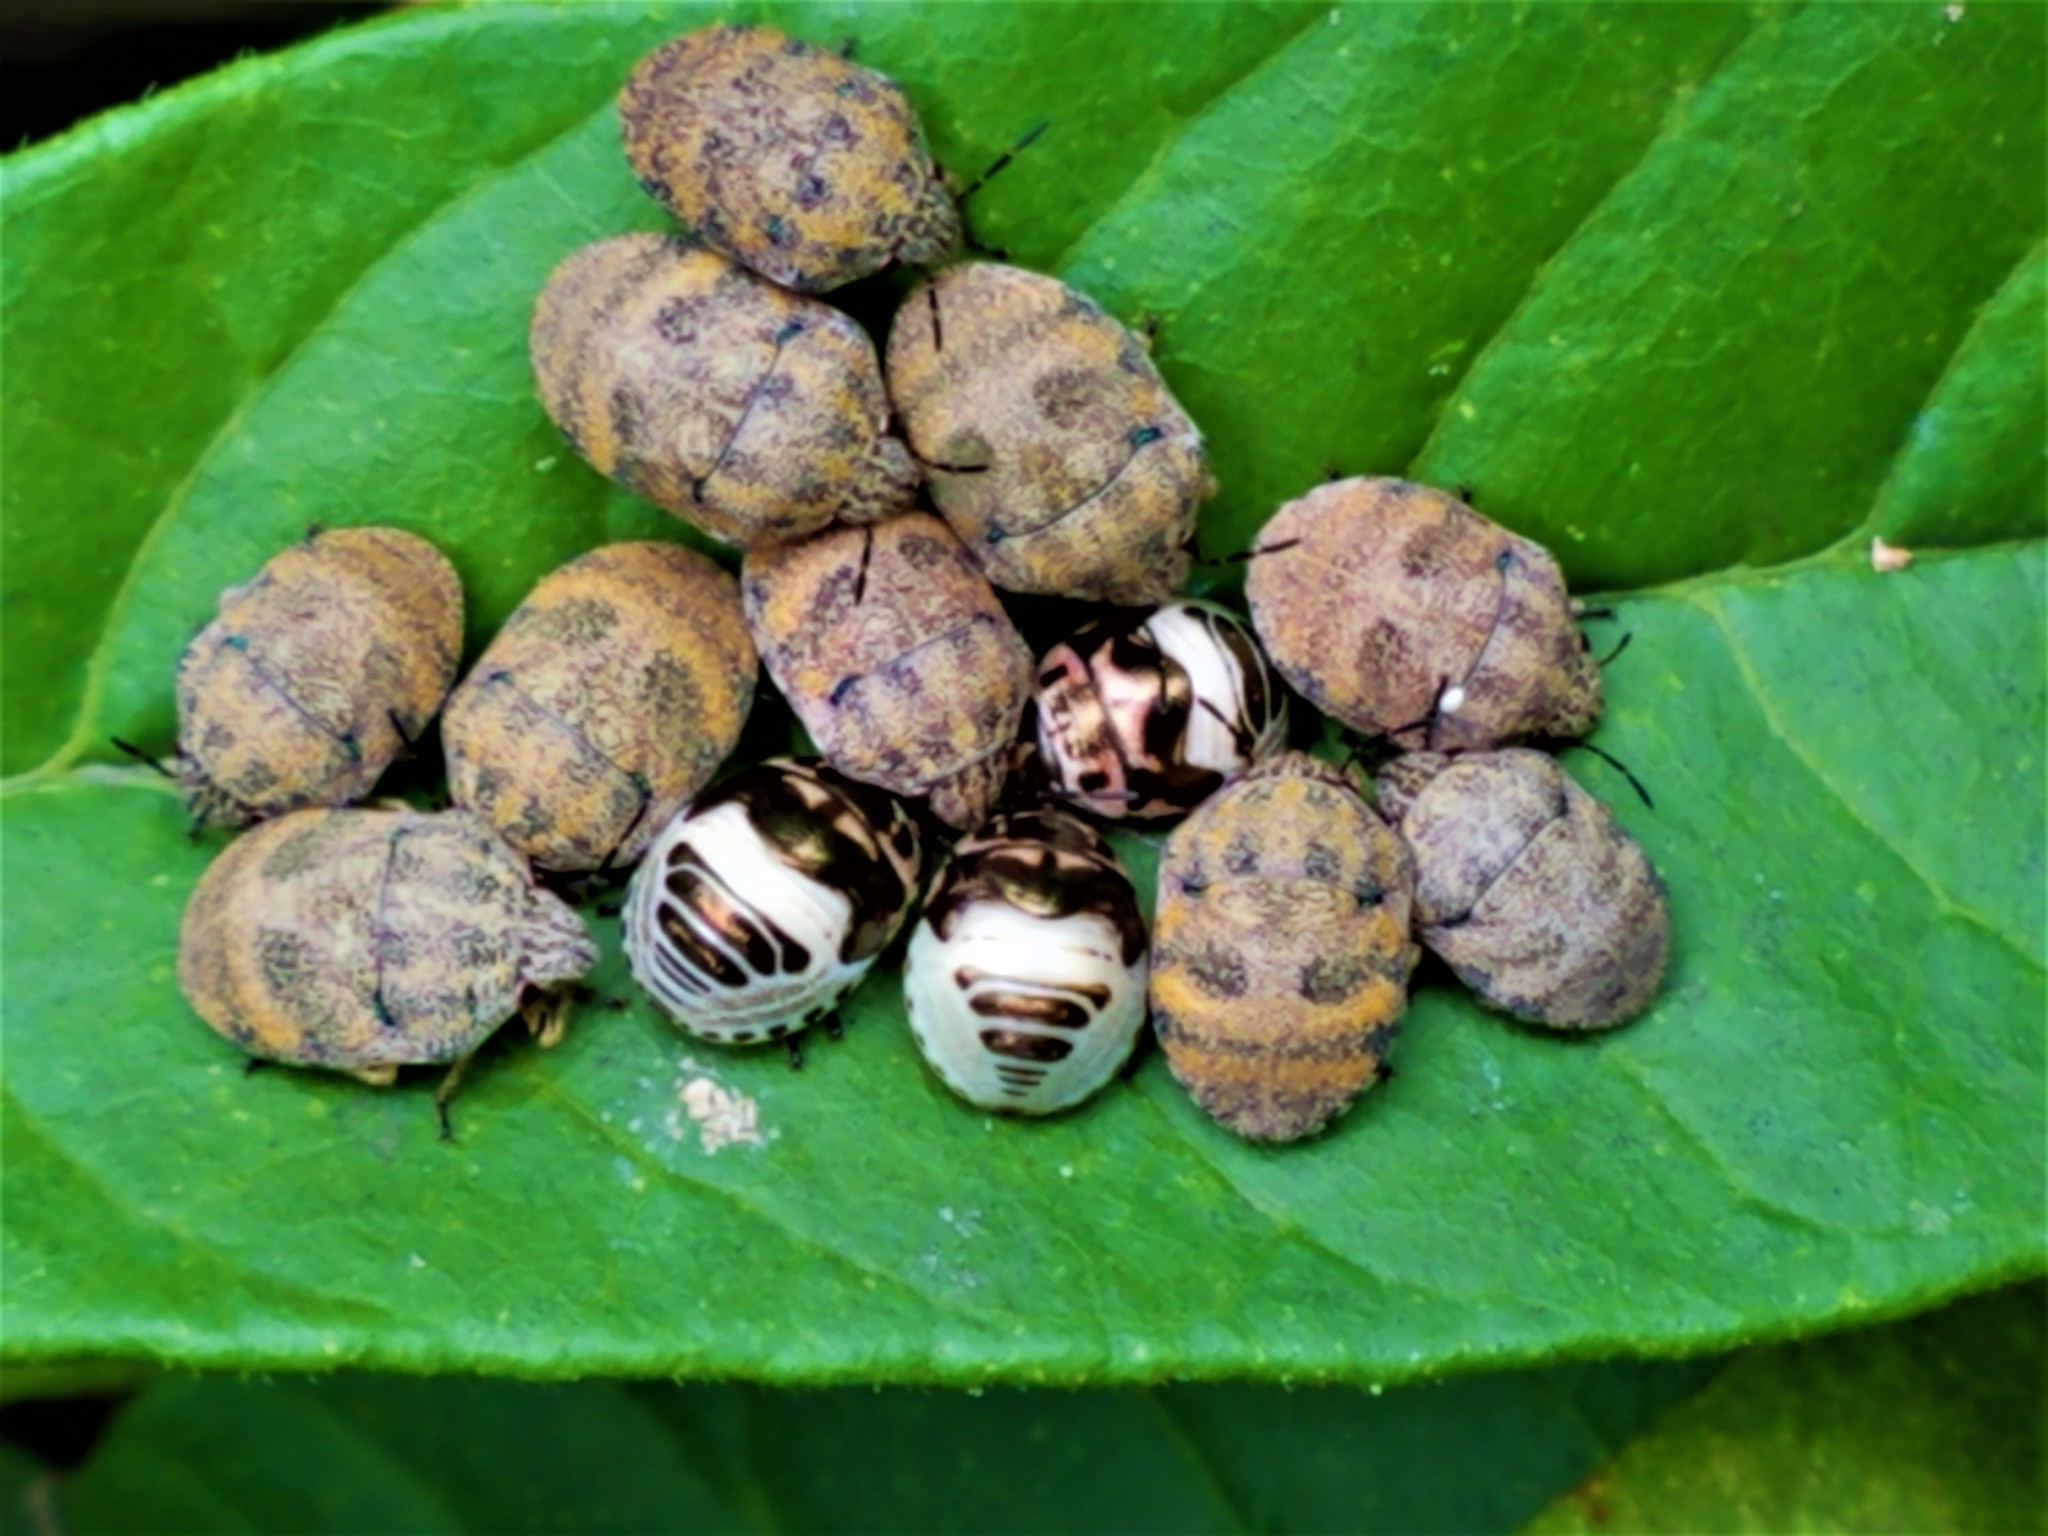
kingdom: Animalia
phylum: Arthropoda
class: Insecta
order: Hemiptera
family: Scutelleridae
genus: Orsilochides
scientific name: Orsilochides
